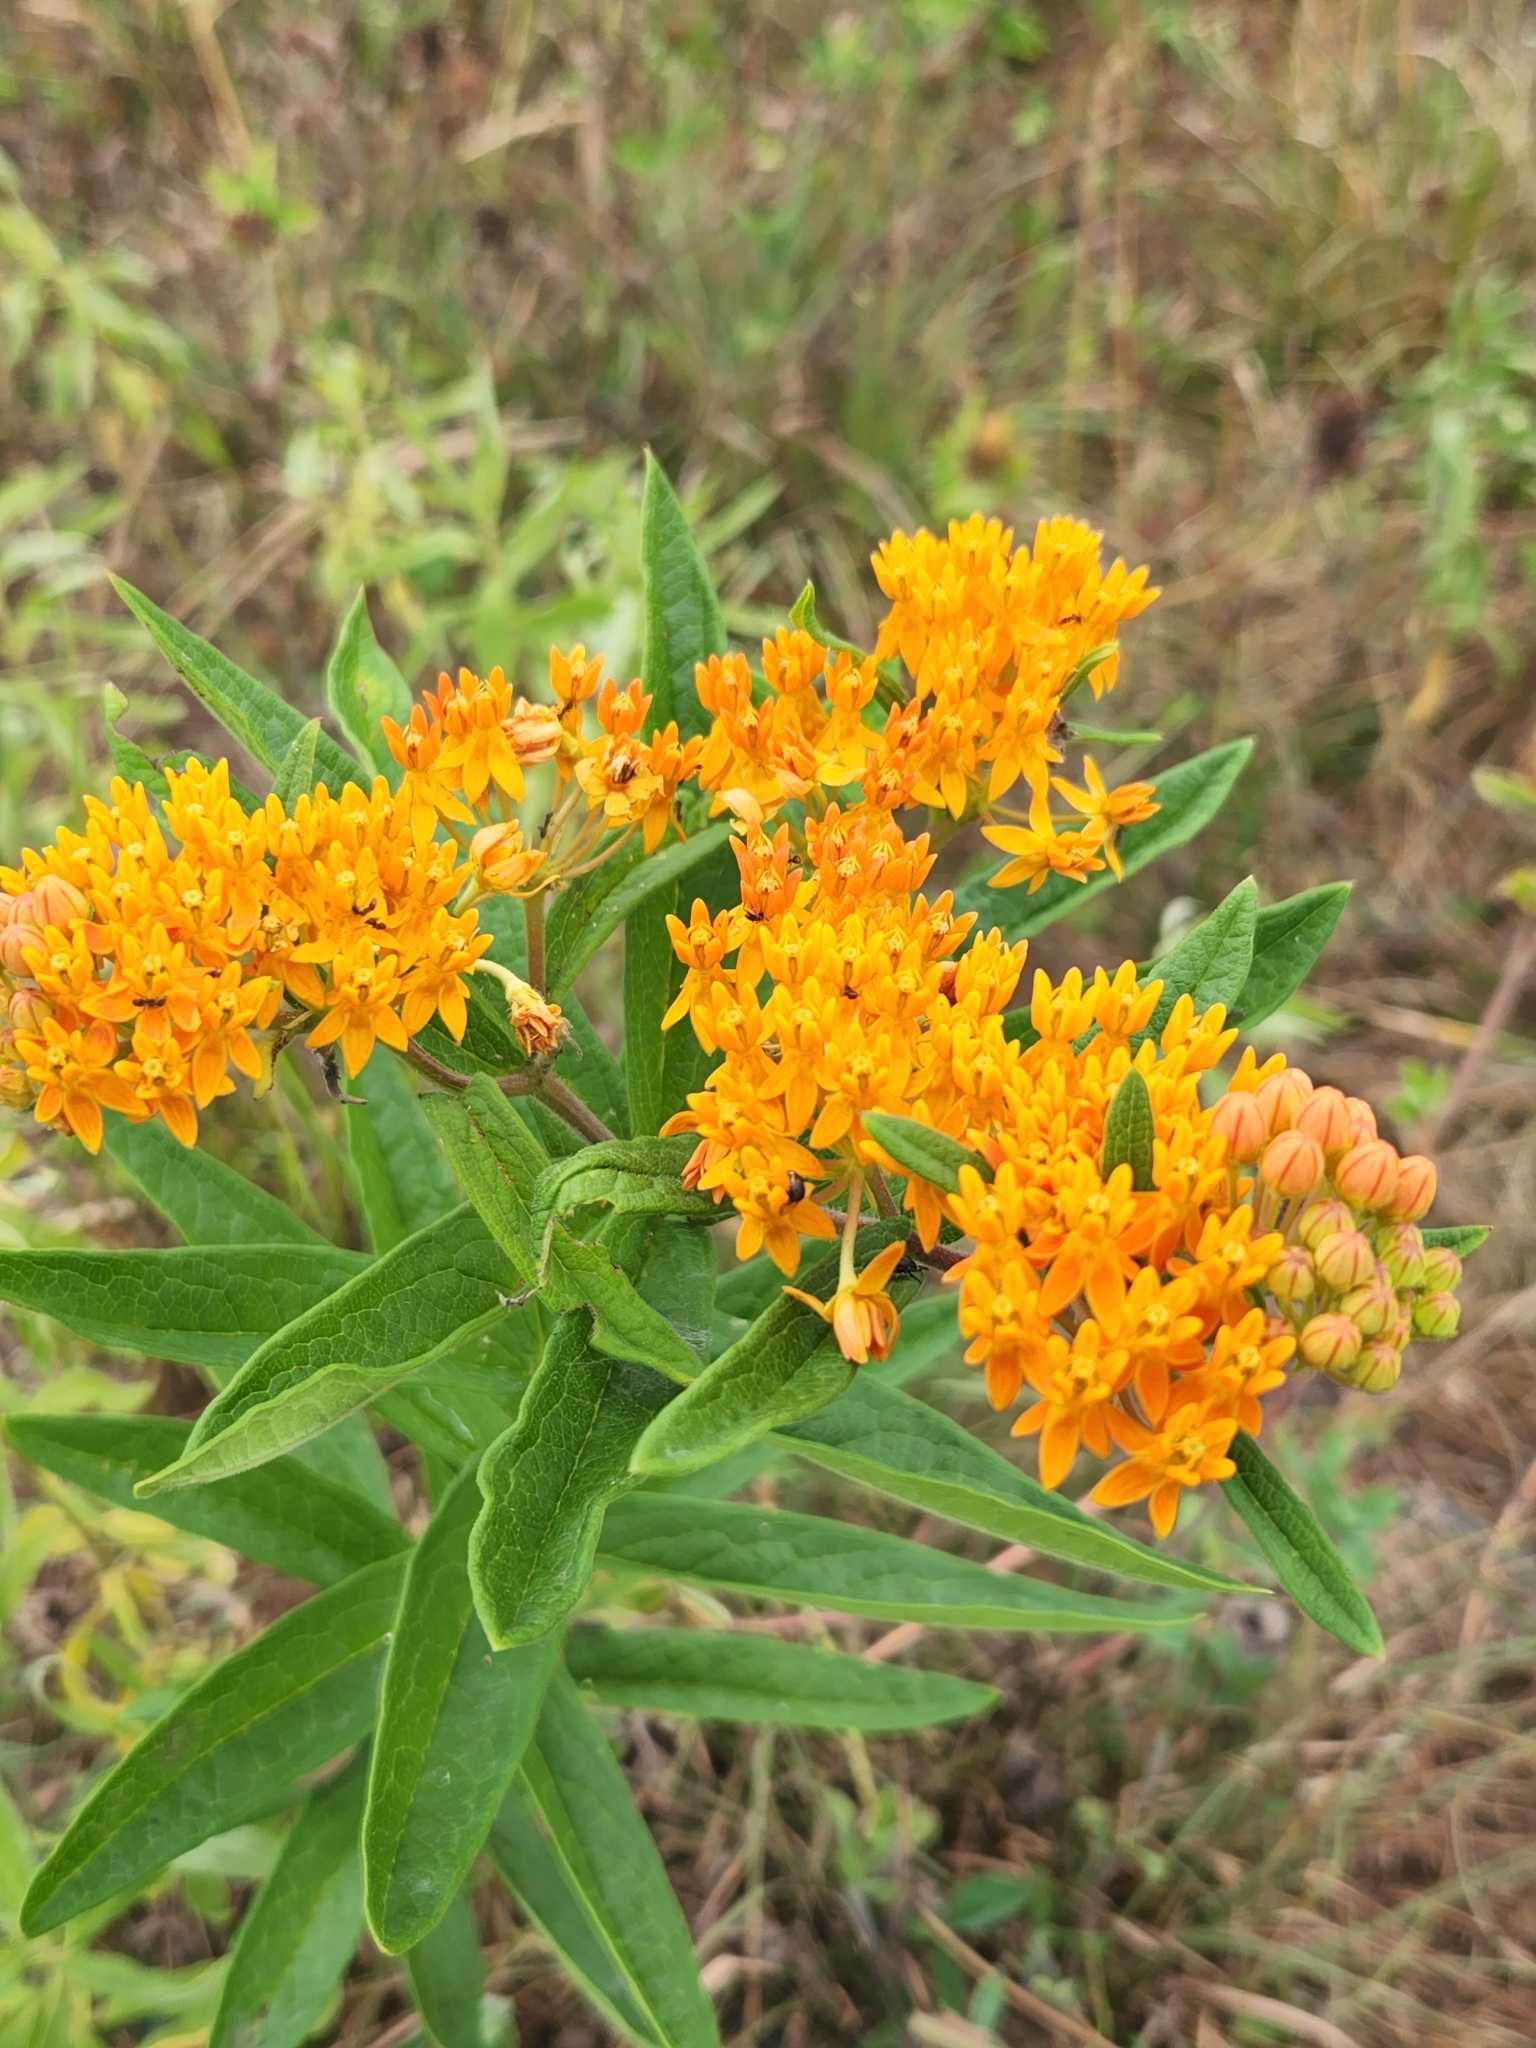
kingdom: Plantae
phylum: Tracheophyta
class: Magnoliopsida
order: Gentianales
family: Apocynaceae
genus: Asclepias
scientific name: Asclepias tuberosa
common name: Butterfly milkweed
